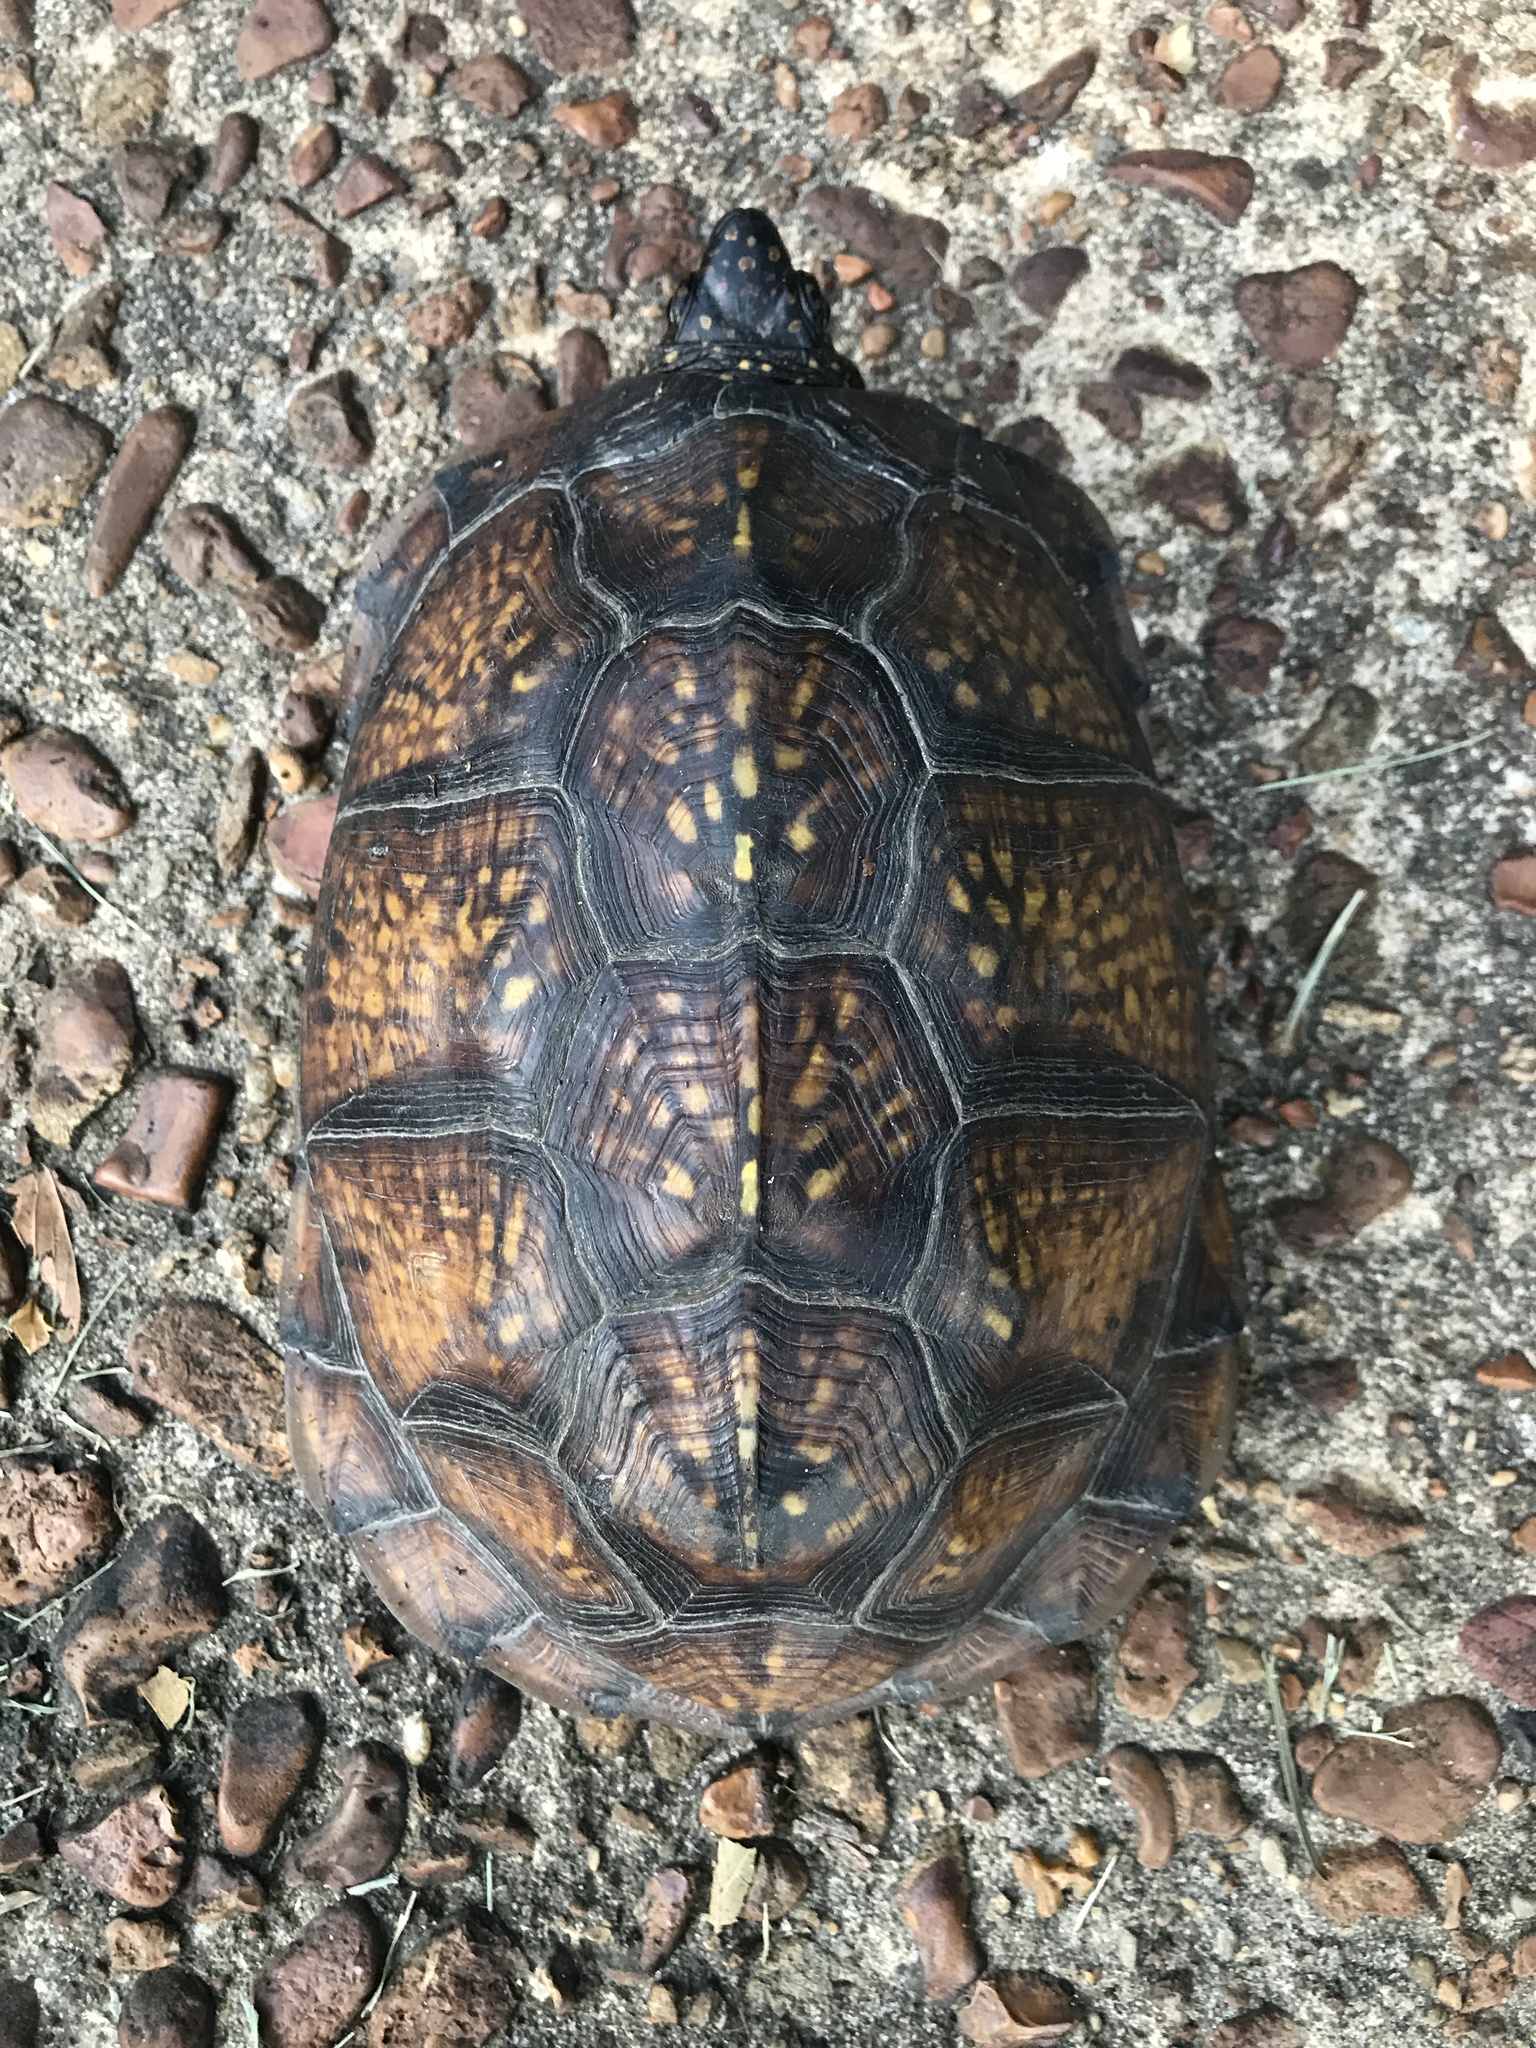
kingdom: Animalia
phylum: Chordata
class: Testudines
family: Emydidae
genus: Terrapene
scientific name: Terrapene carolina
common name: Common box turtle
